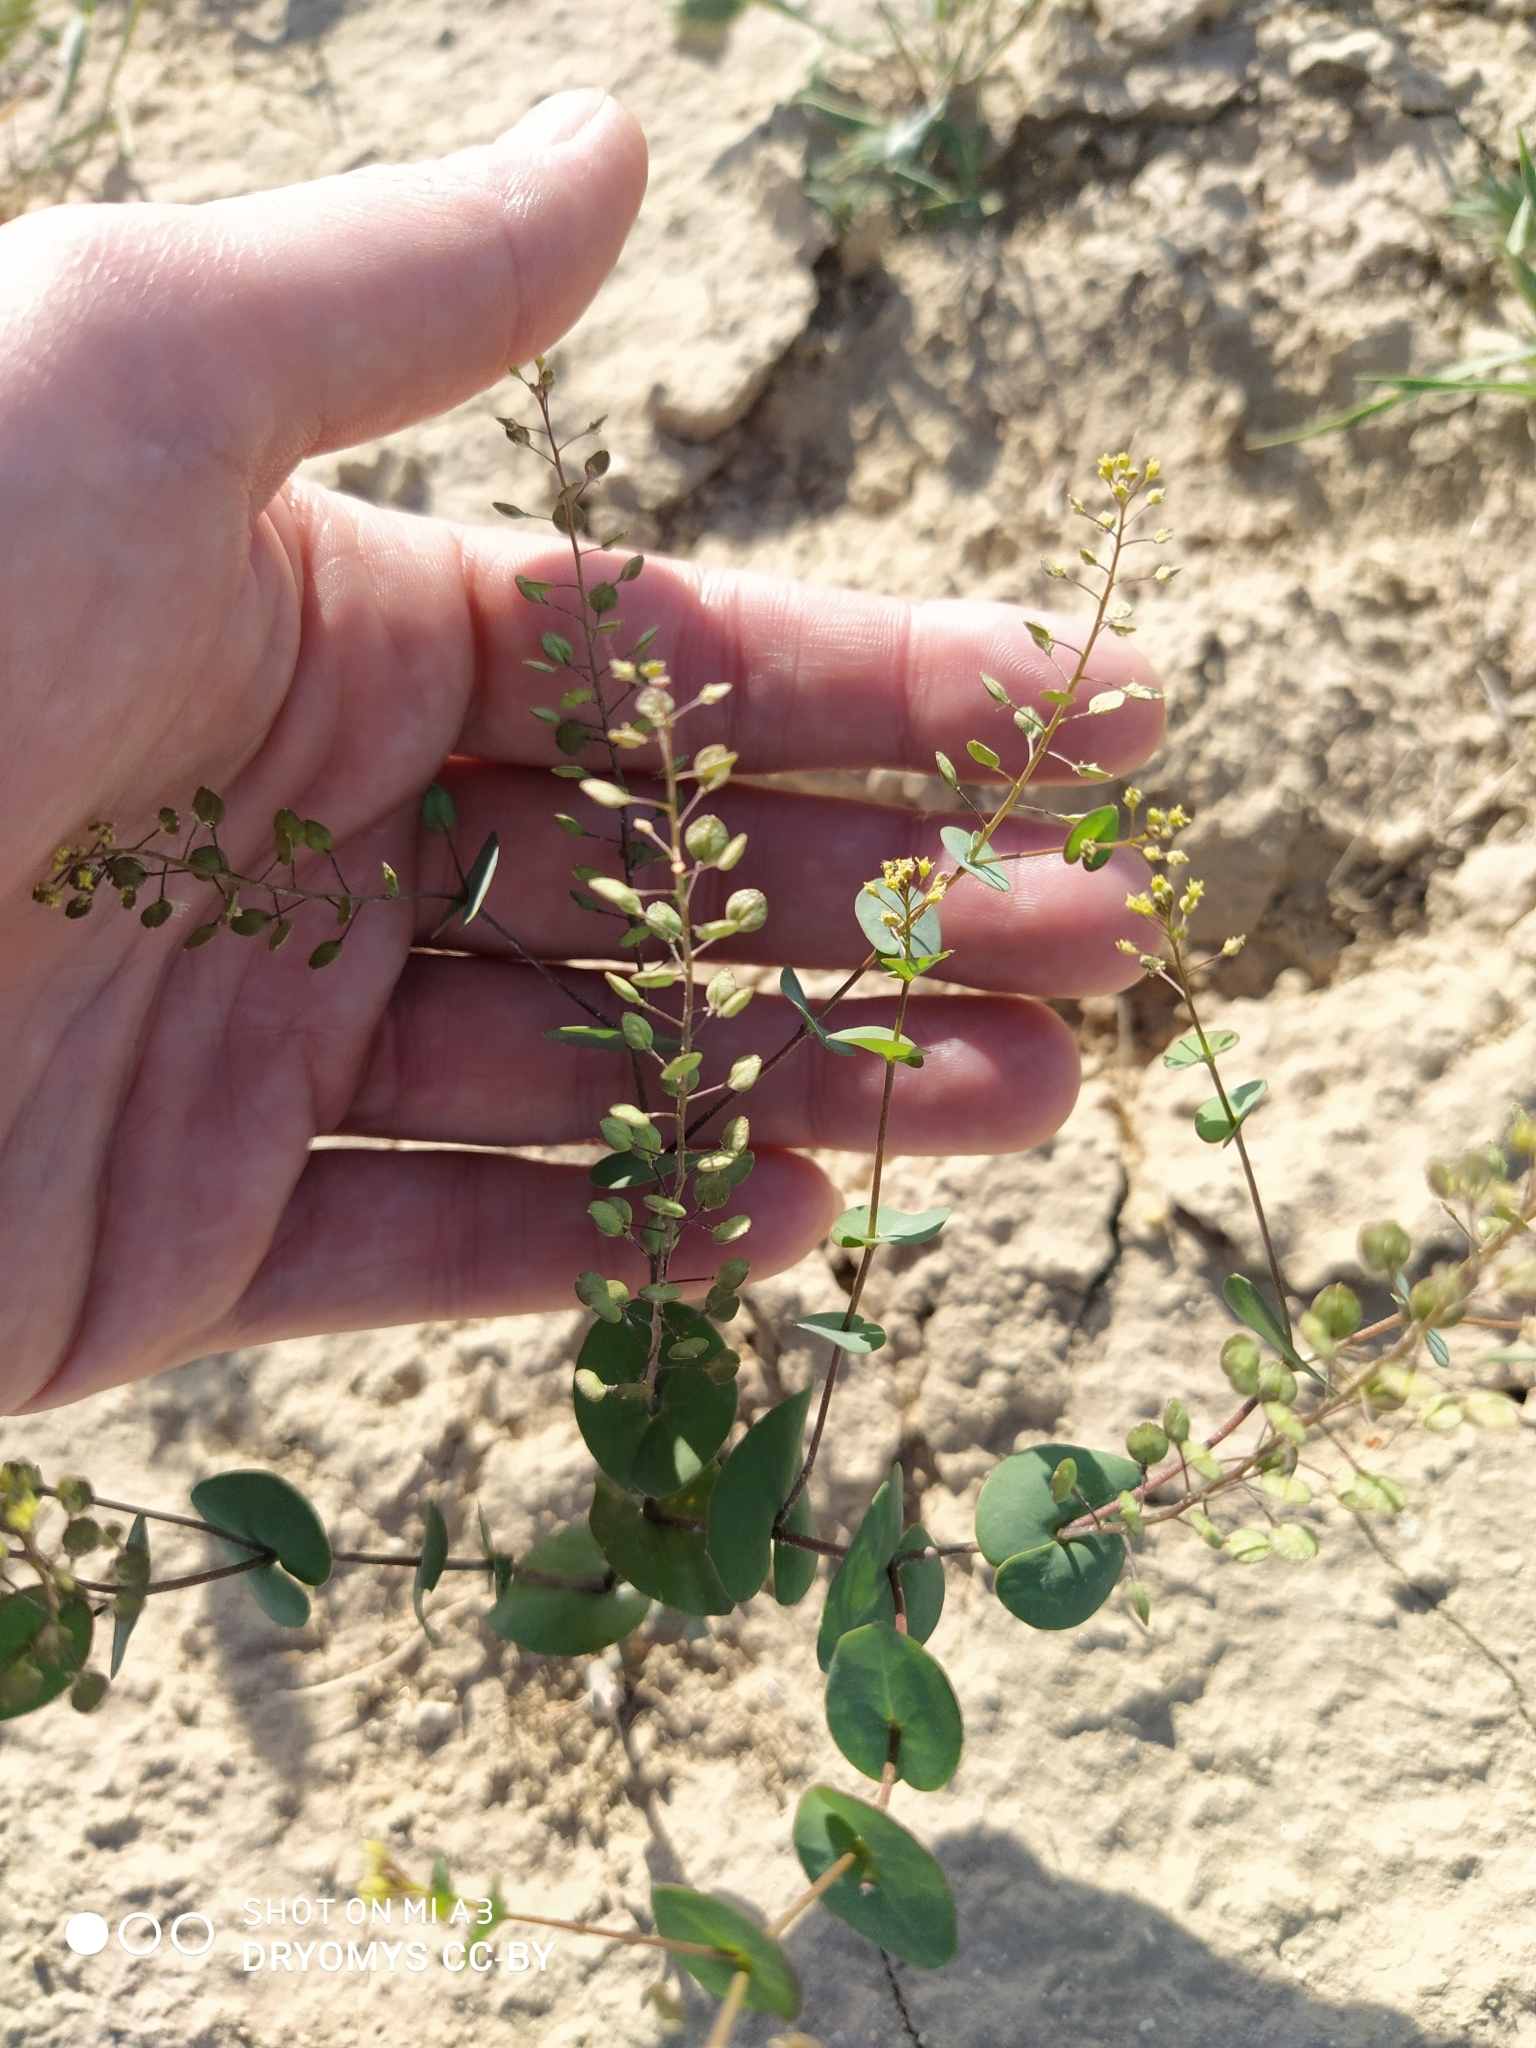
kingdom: Plantae
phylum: Tracheophyta
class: Magnoliopsida
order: Brassicales
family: Brassicaceae
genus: Lepidium
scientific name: Lepidium perfoliatum
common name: Perfoliate pepperwort
